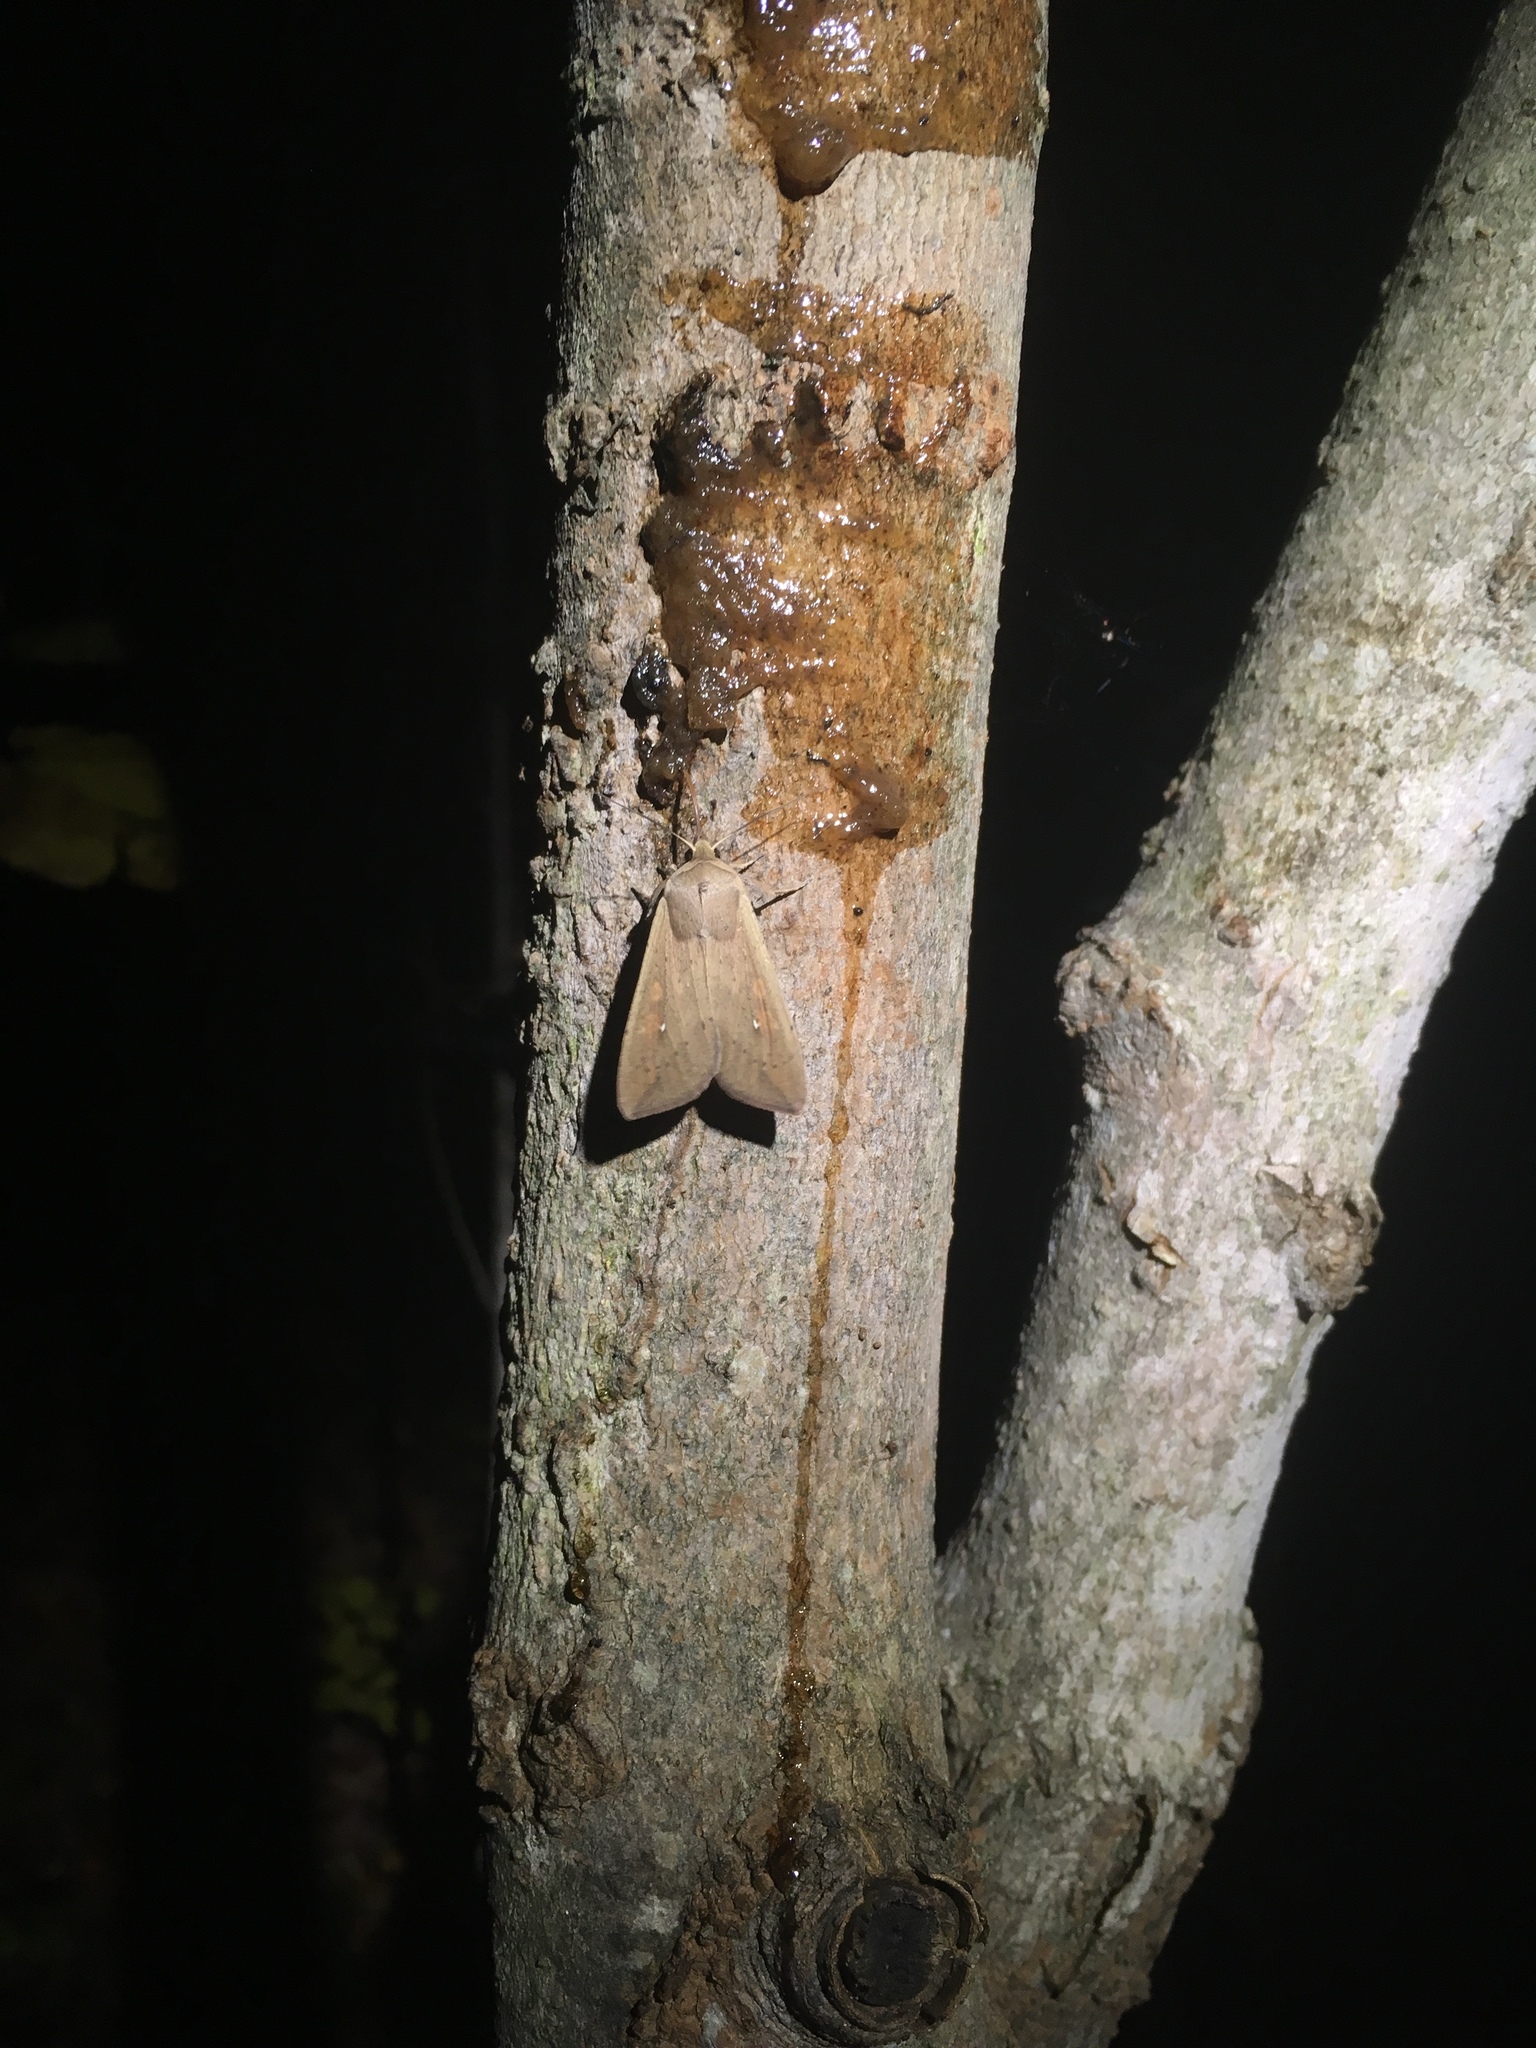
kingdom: Animalia
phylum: Arthropoda
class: Insecta
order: Lepidoptera
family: Noctuidae
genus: Mythimna
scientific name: Mythimna unipuncta
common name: White-speck
